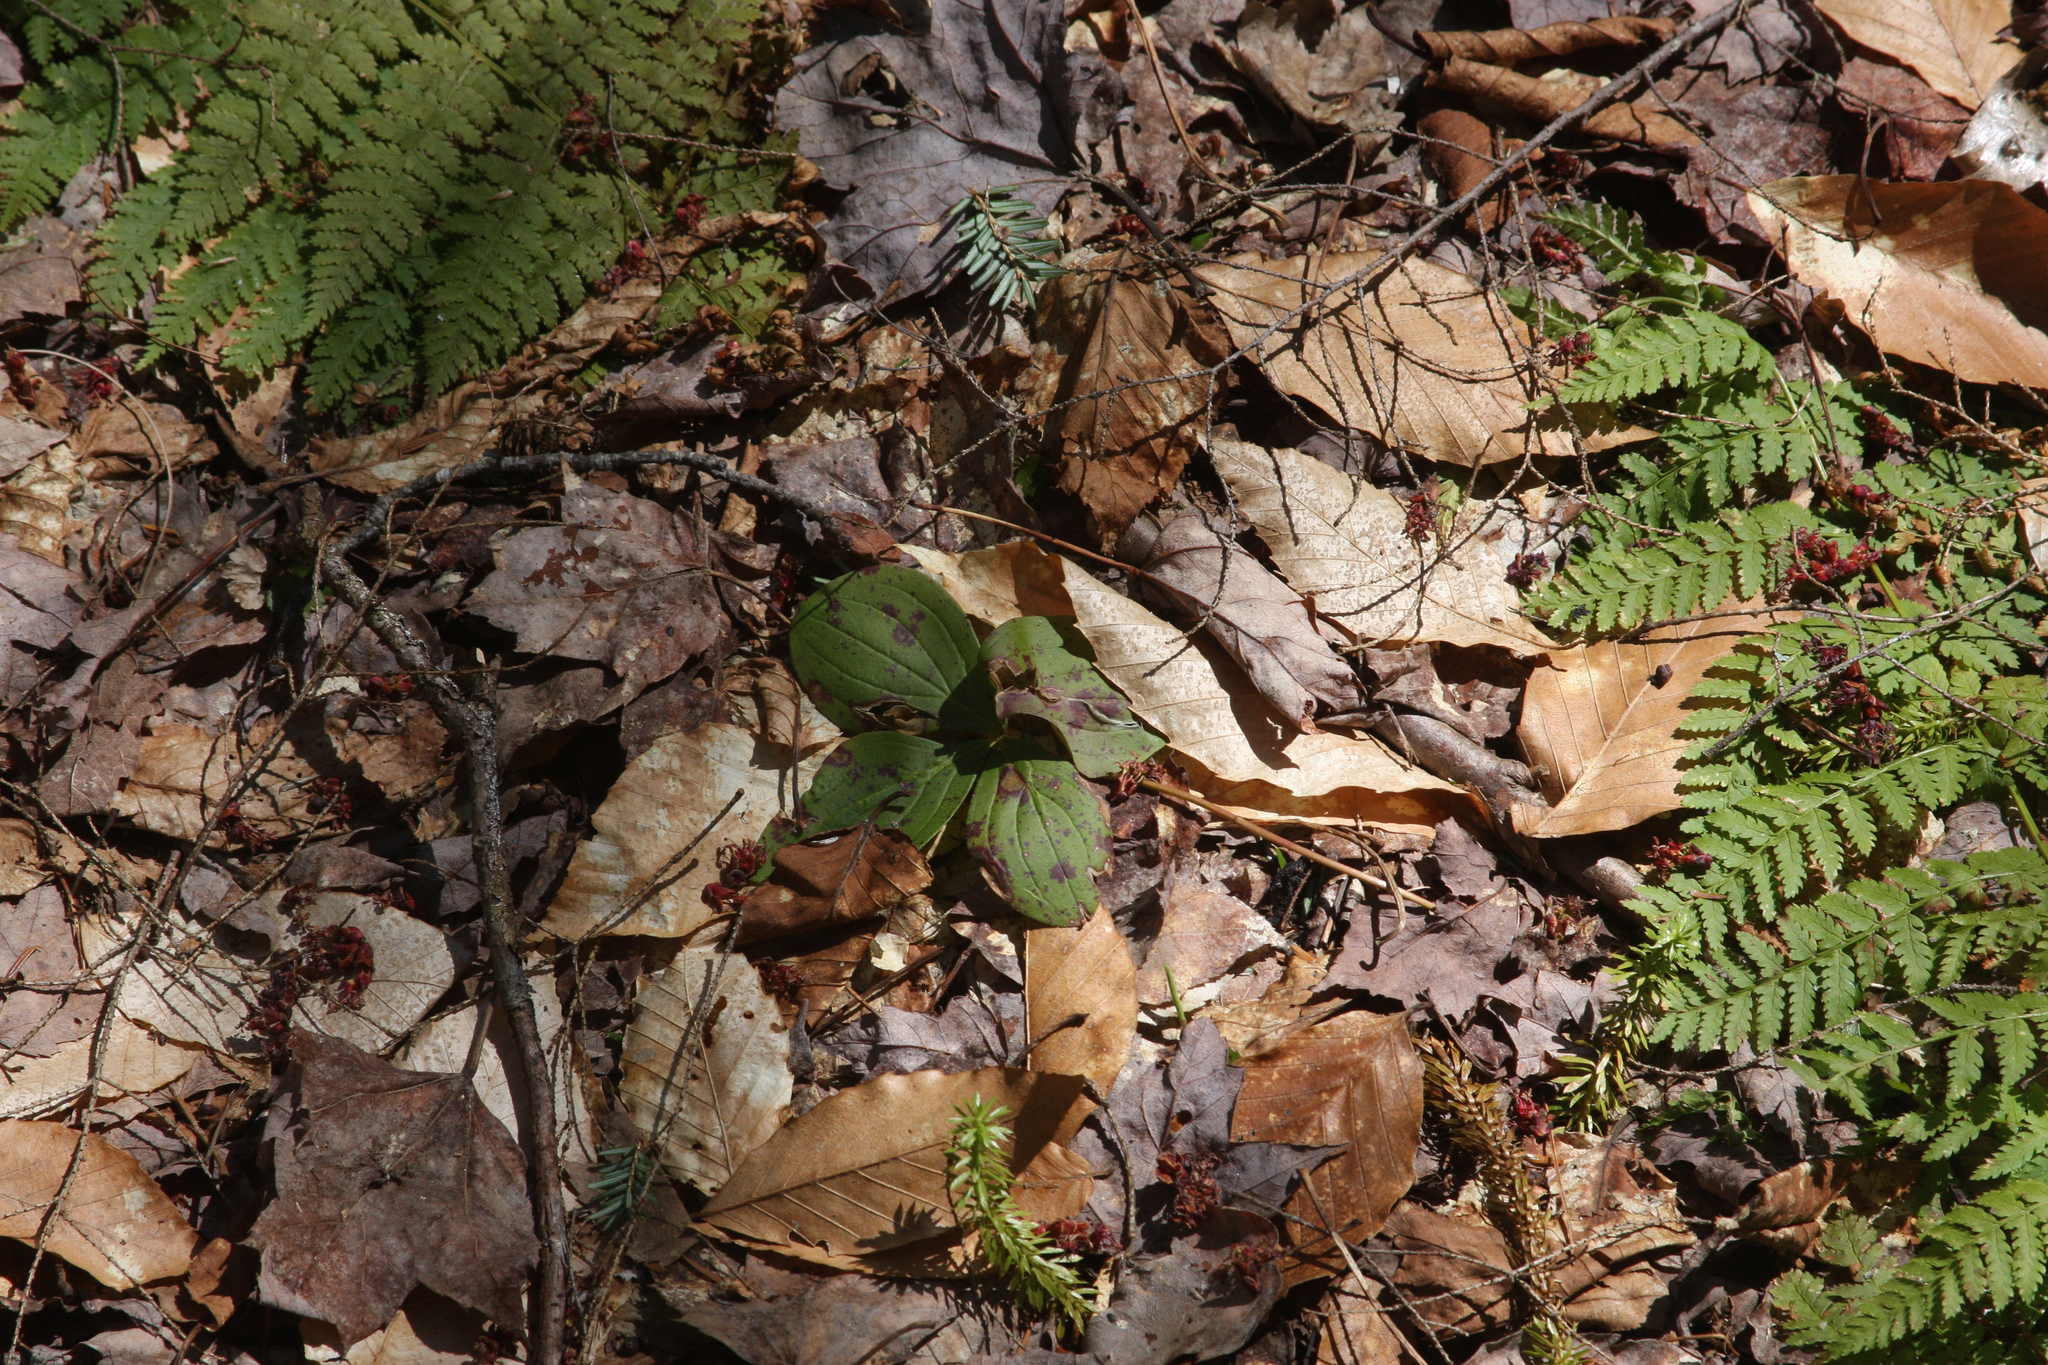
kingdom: Plantae
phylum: Tracheophyta
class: Magnoliopsida
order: Cornales
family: Cornaceae
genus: Cornus
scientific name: Cornus canadensis
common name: Creeping dogwood
